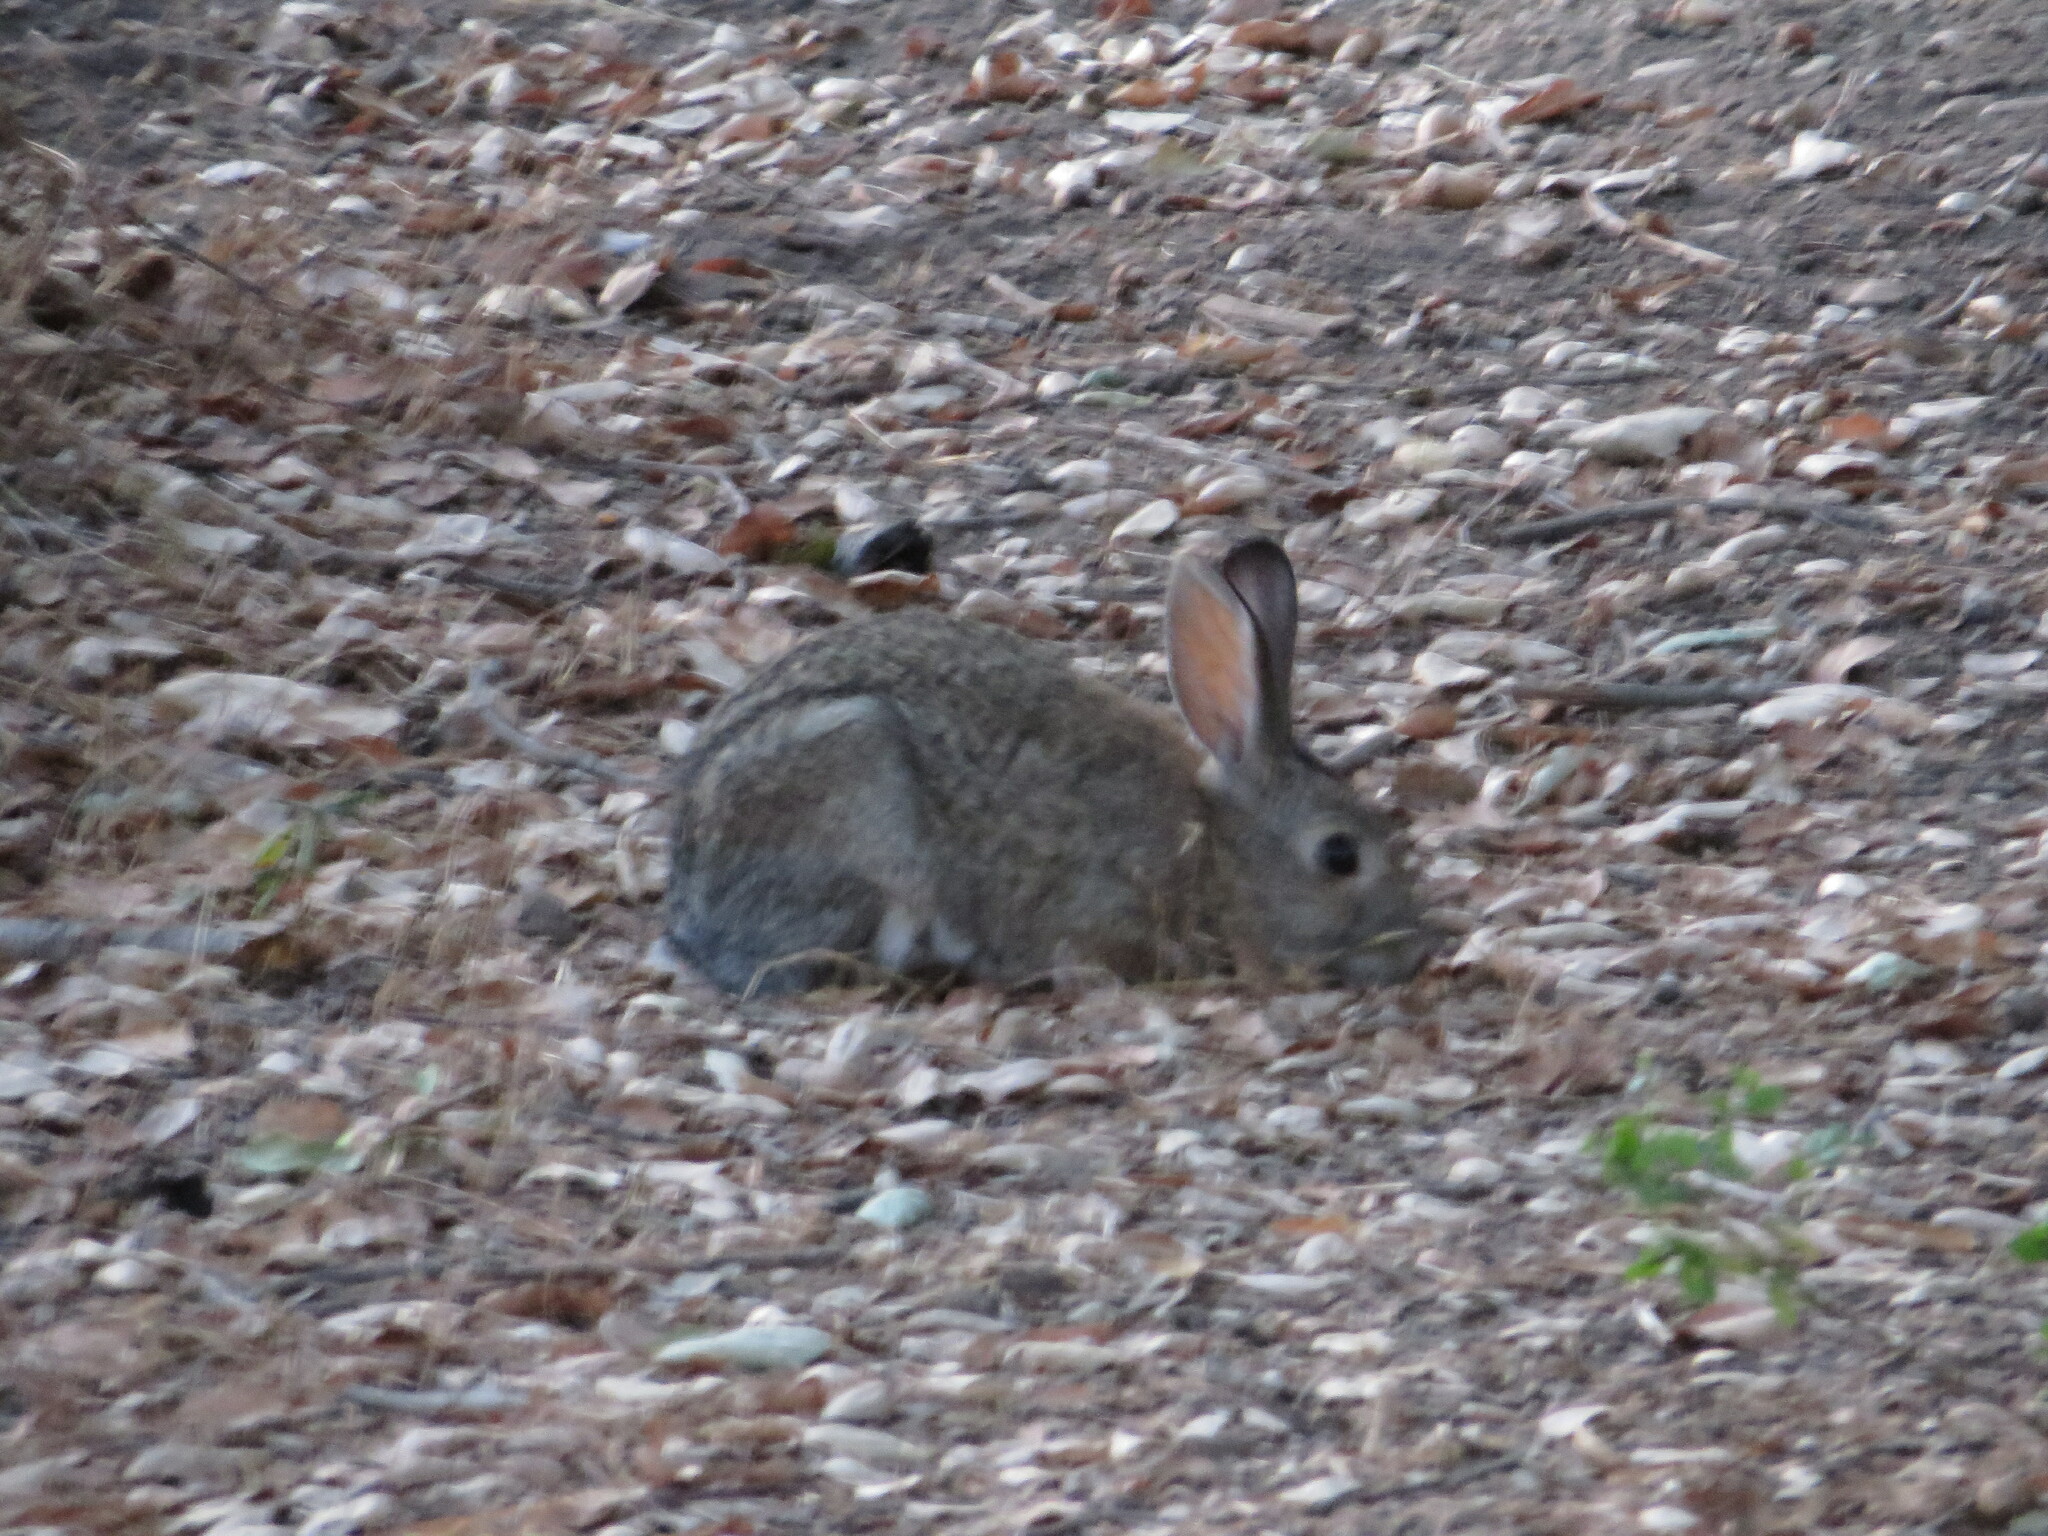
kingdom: Animalia
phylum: Chordata
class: Mammalia
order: Lagomorpha
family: Leporidae
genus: Sylvilagus
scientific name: Sylvilagus audubonii
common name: Desert cottontail
